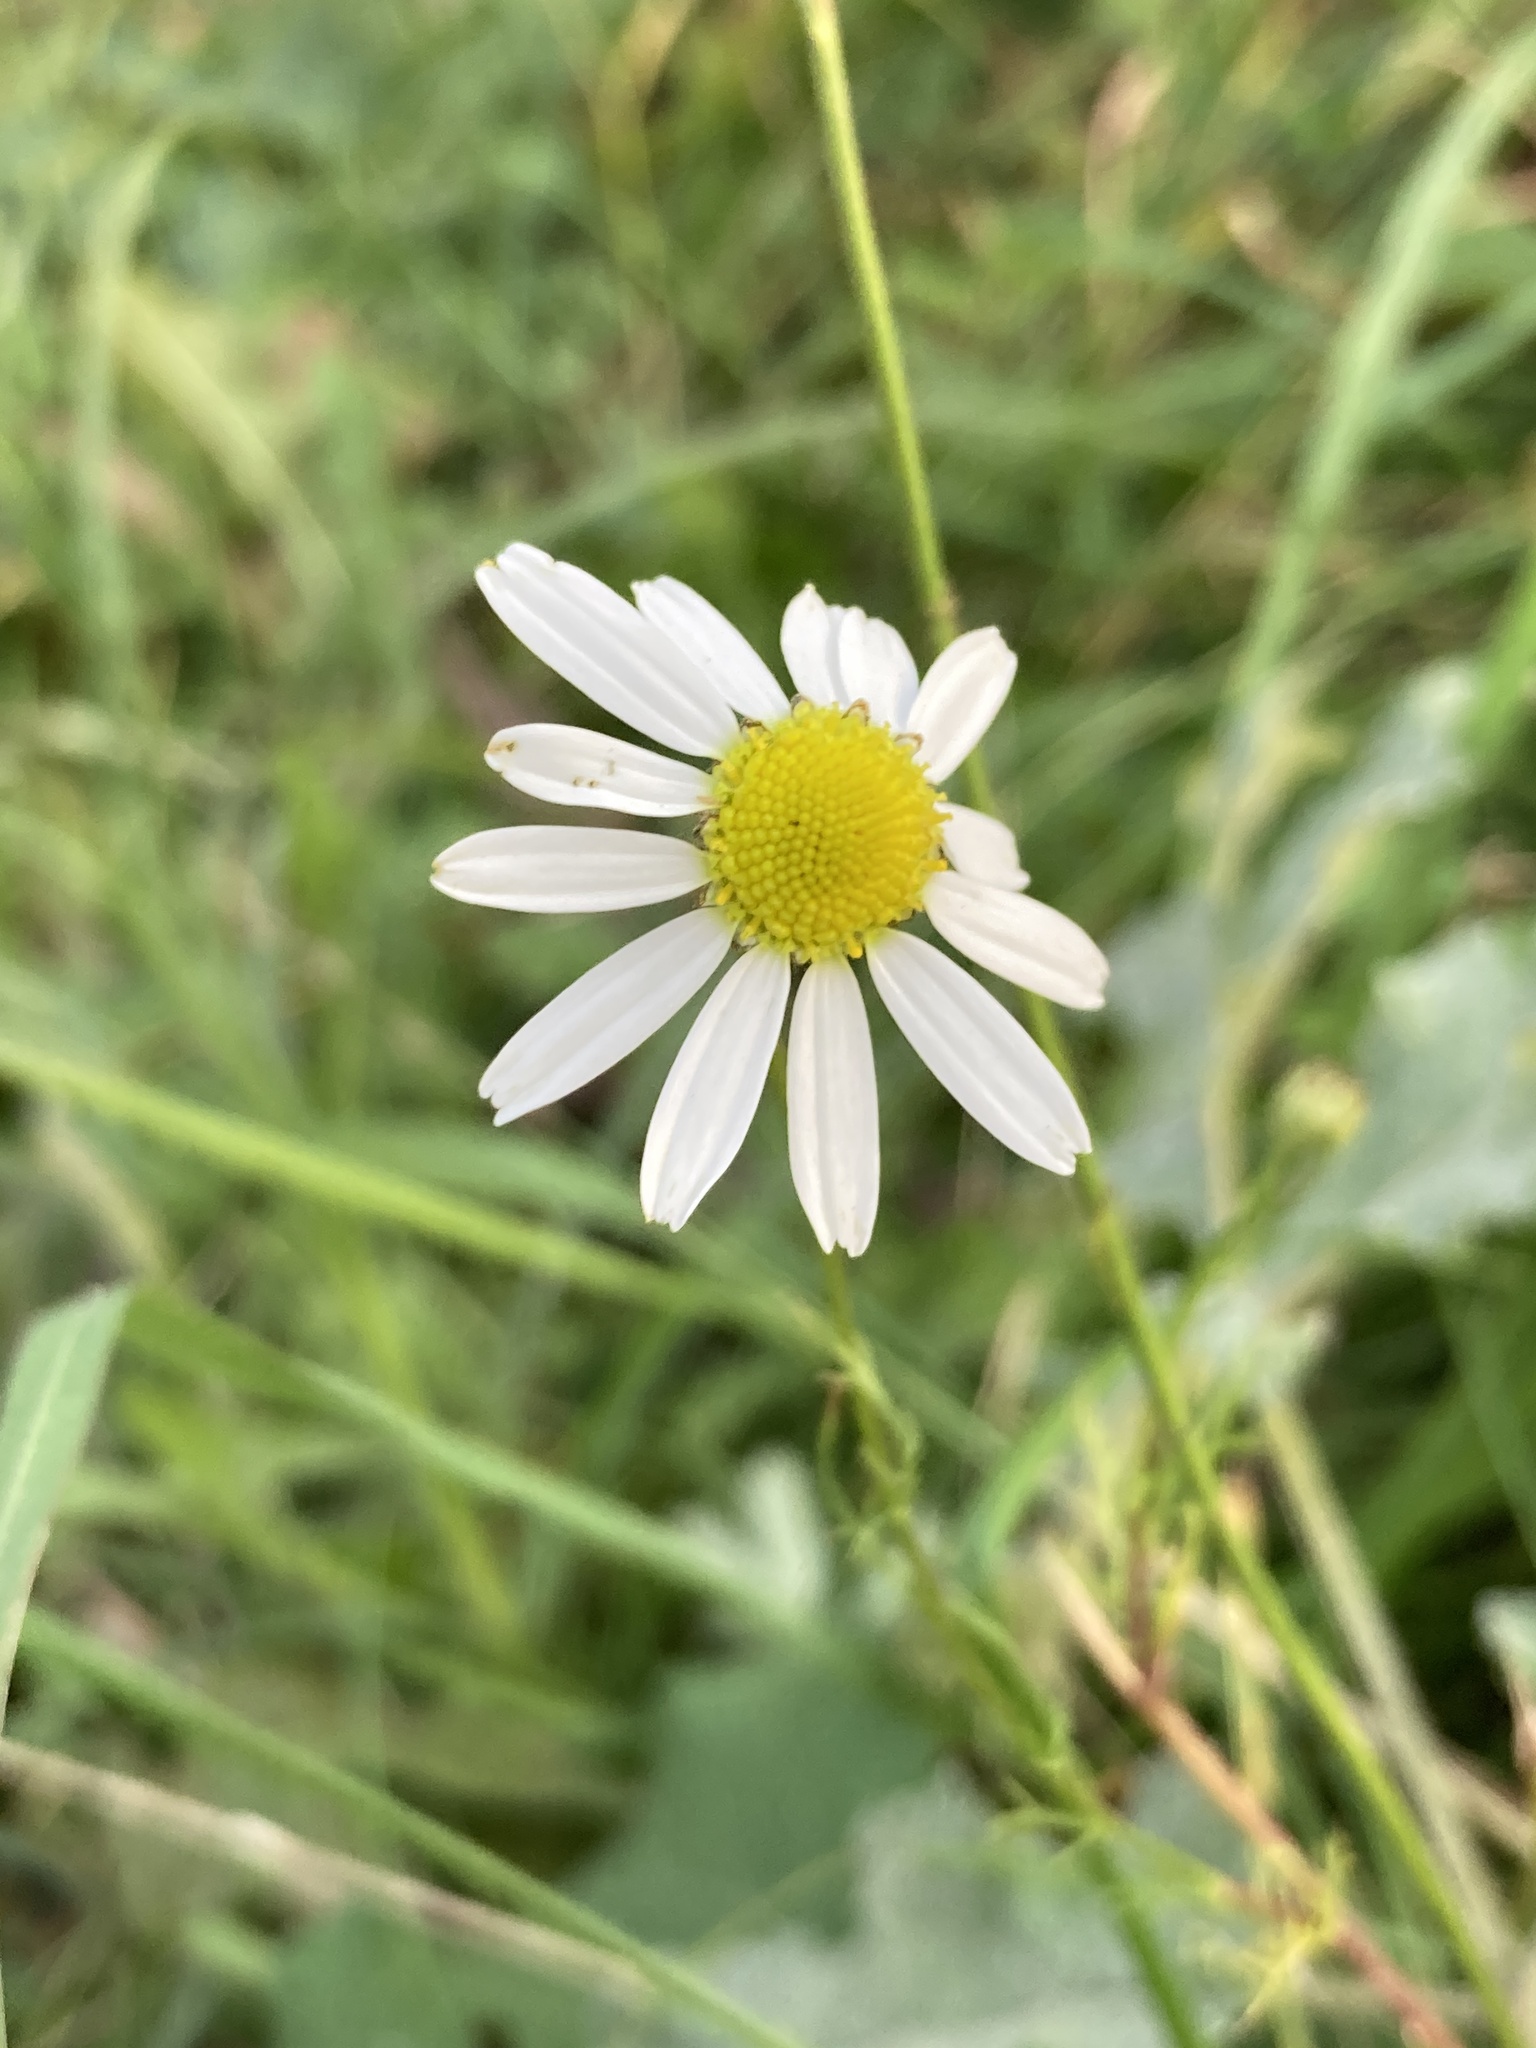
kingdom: Plantae
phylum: Tracheophyta
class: Magnoliopsida
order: Asterales
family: Asteraceae
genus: Tripleurospermum
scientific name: Tripleurospermum inodorum
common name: Scentless mayweed
